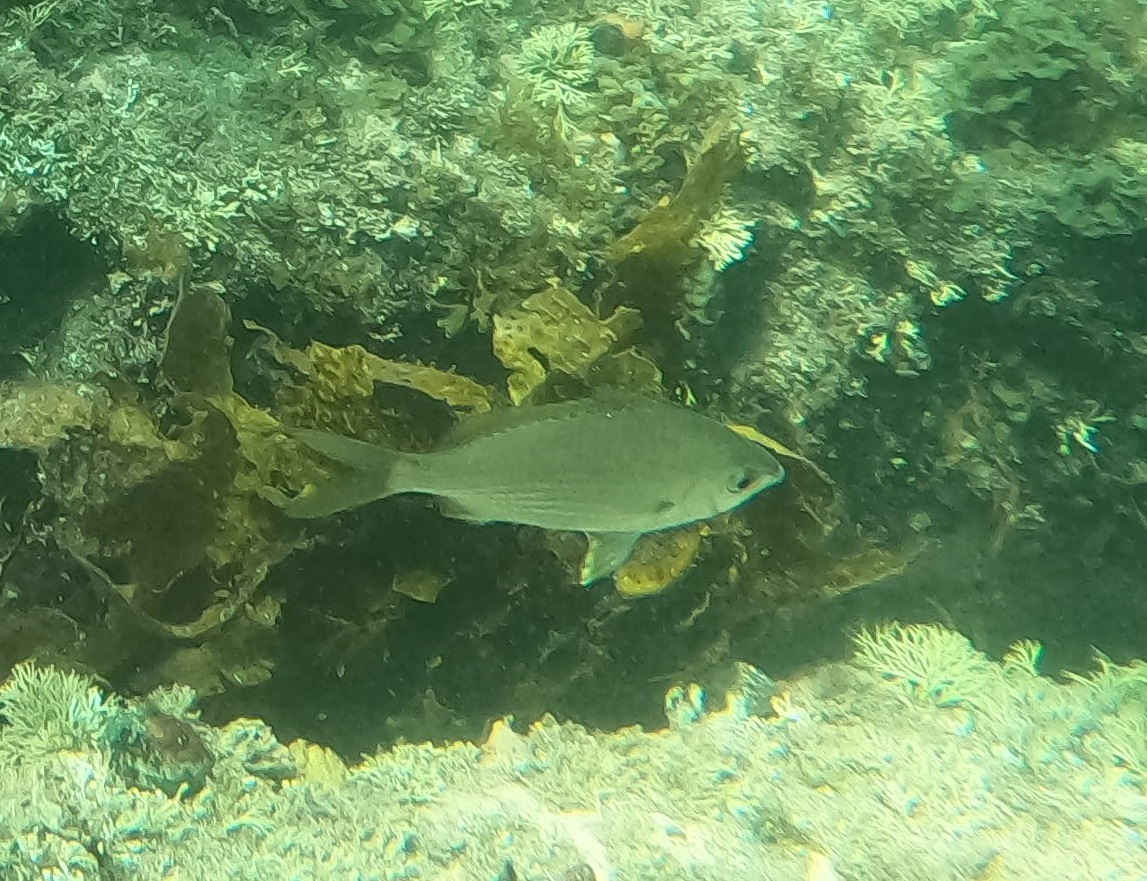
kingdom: Animalia
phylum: Chordata
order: Perciformes
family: Gerreidae
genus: Gerres
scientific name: Gerres subfasciatus
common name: Common silver belly
